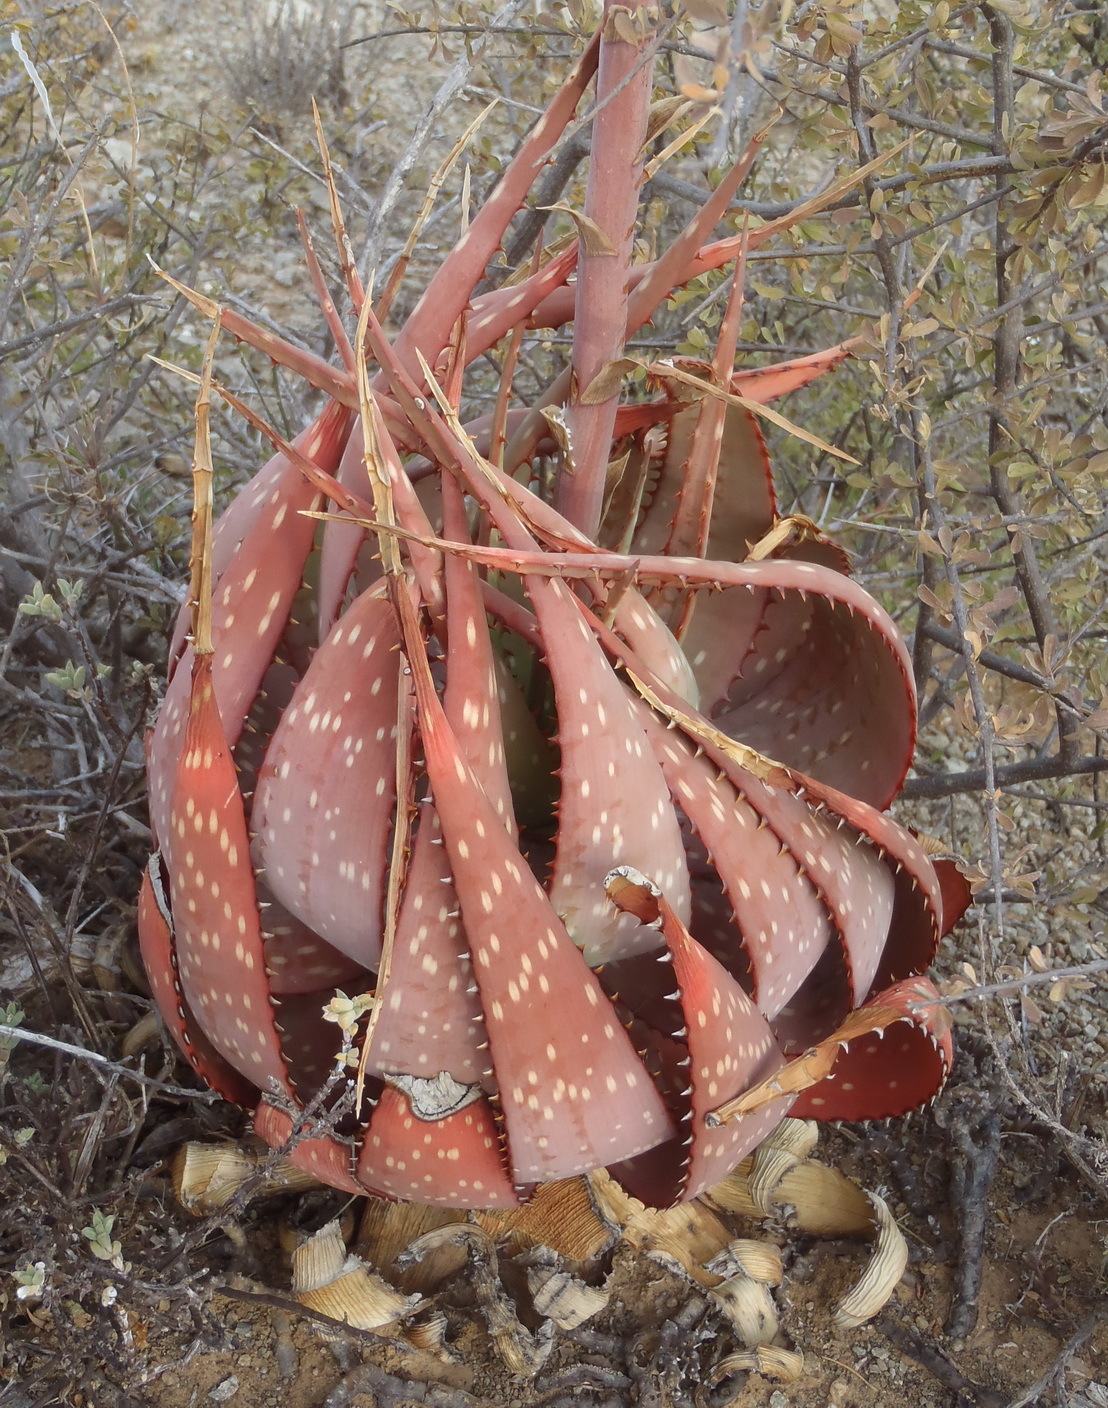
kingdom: Plantae
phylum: Tracheophyta
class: Liliopsida
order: Asparagales
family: Asphodelaceae
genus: Aloe
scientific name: Aloe microstigma
